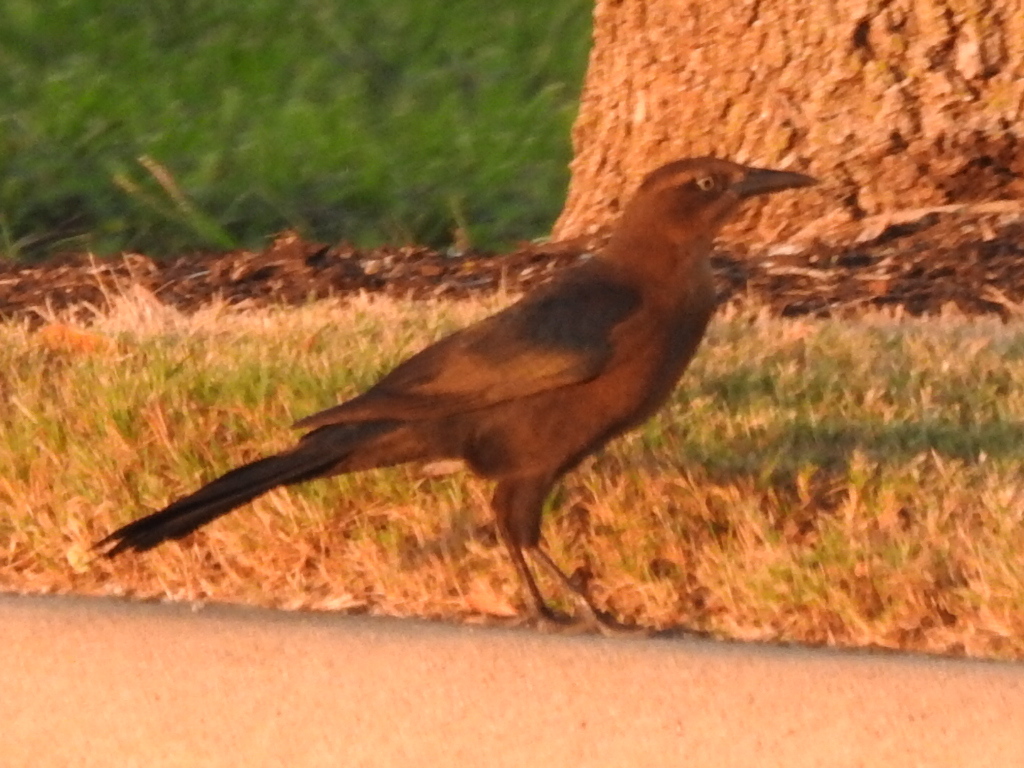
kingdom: Animalia
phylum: Chordata
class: Aves
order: Passeriformes
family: Icteridae
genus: Quiscalus
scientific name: Quiscalus mexicanus
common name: Great-tailed grackle
